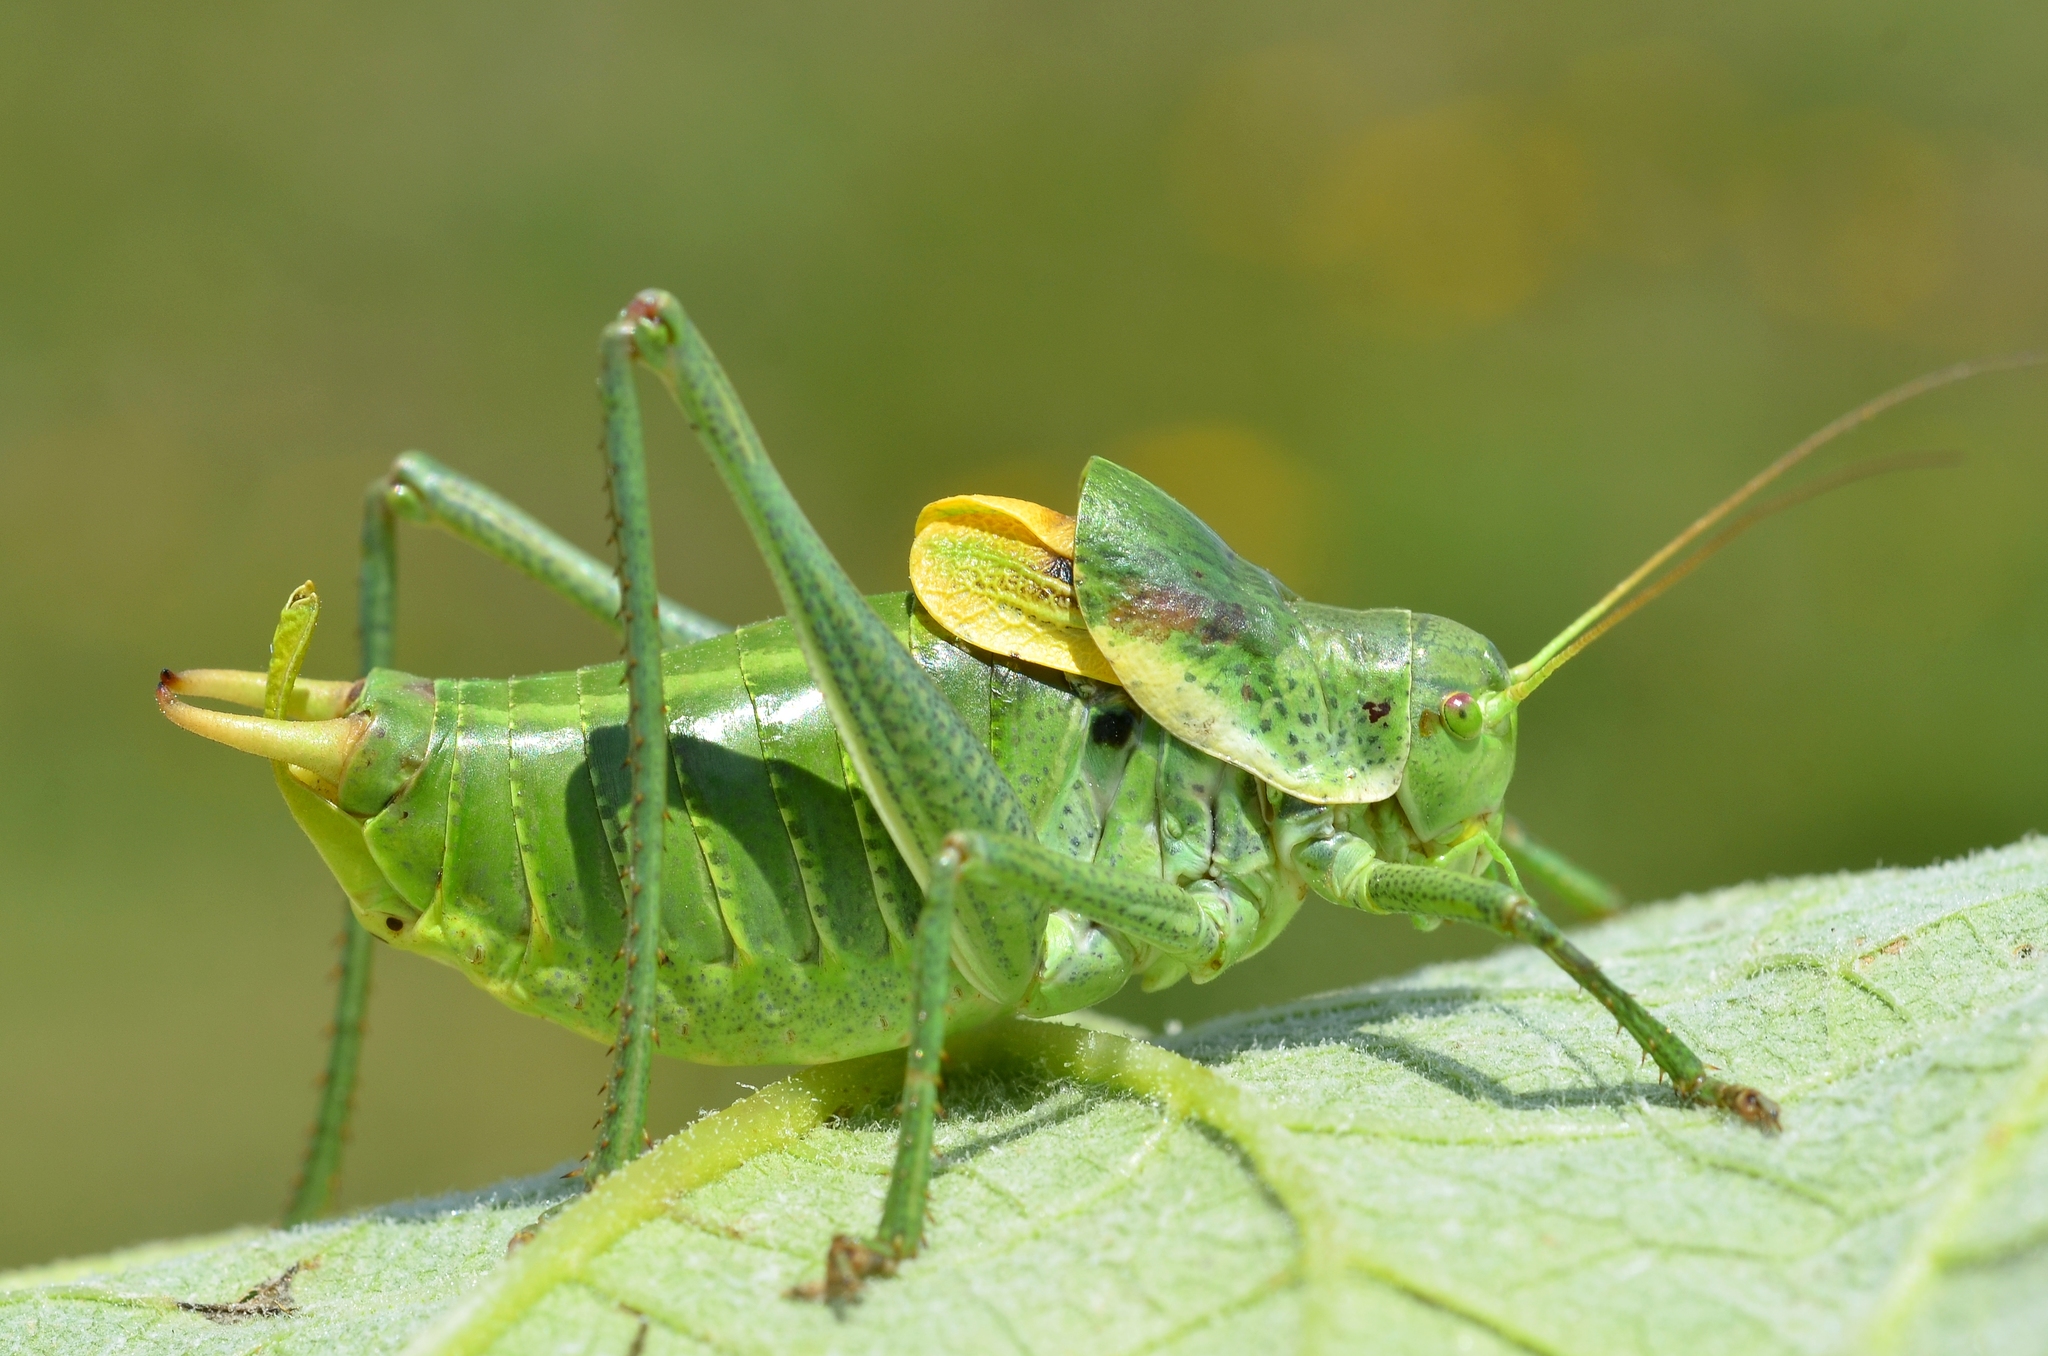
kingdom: Animalia
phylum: Arthropoda
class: Insecta
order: Orthoptera
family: Tettigoniidae
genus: Polysarcus
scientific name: Polysarcus denticauda
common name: Large saw-tailed bush-cricket
